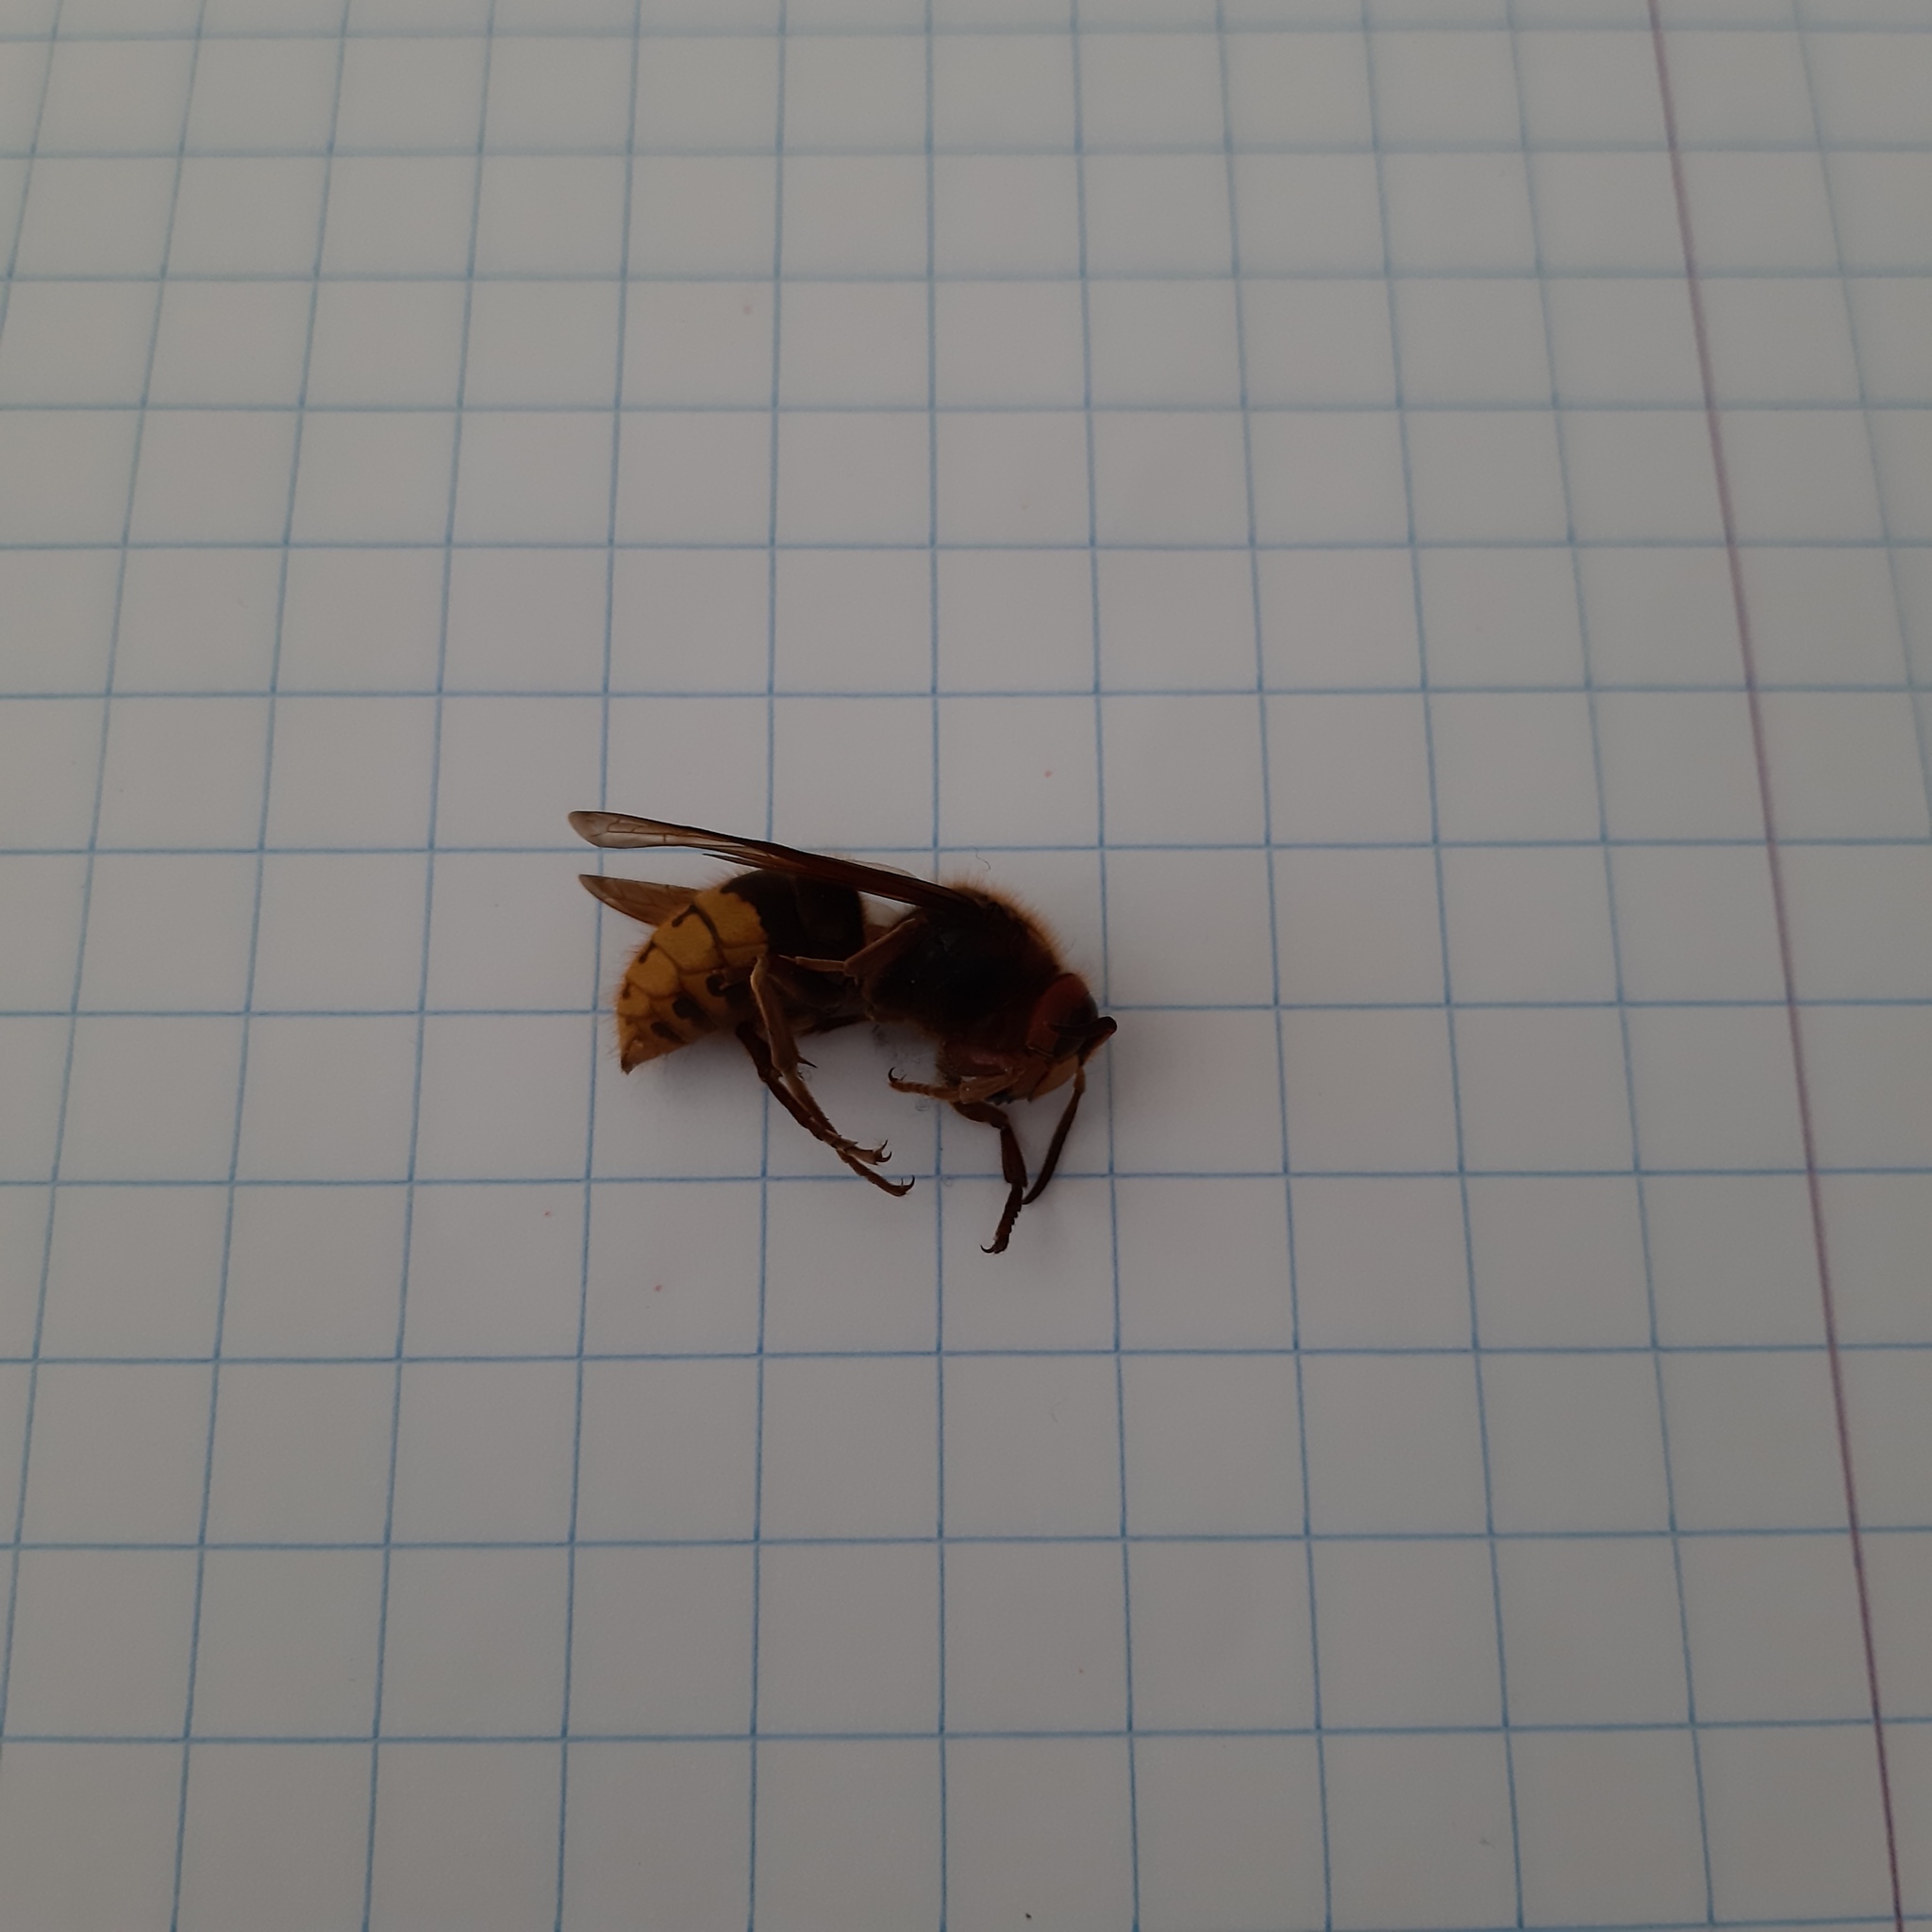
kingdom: Animalia
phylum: Arthropoda
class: Insecta
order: Hymenoptera
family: Vespidae
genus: Vespa
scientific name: Vespa crabro
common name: Hornet
